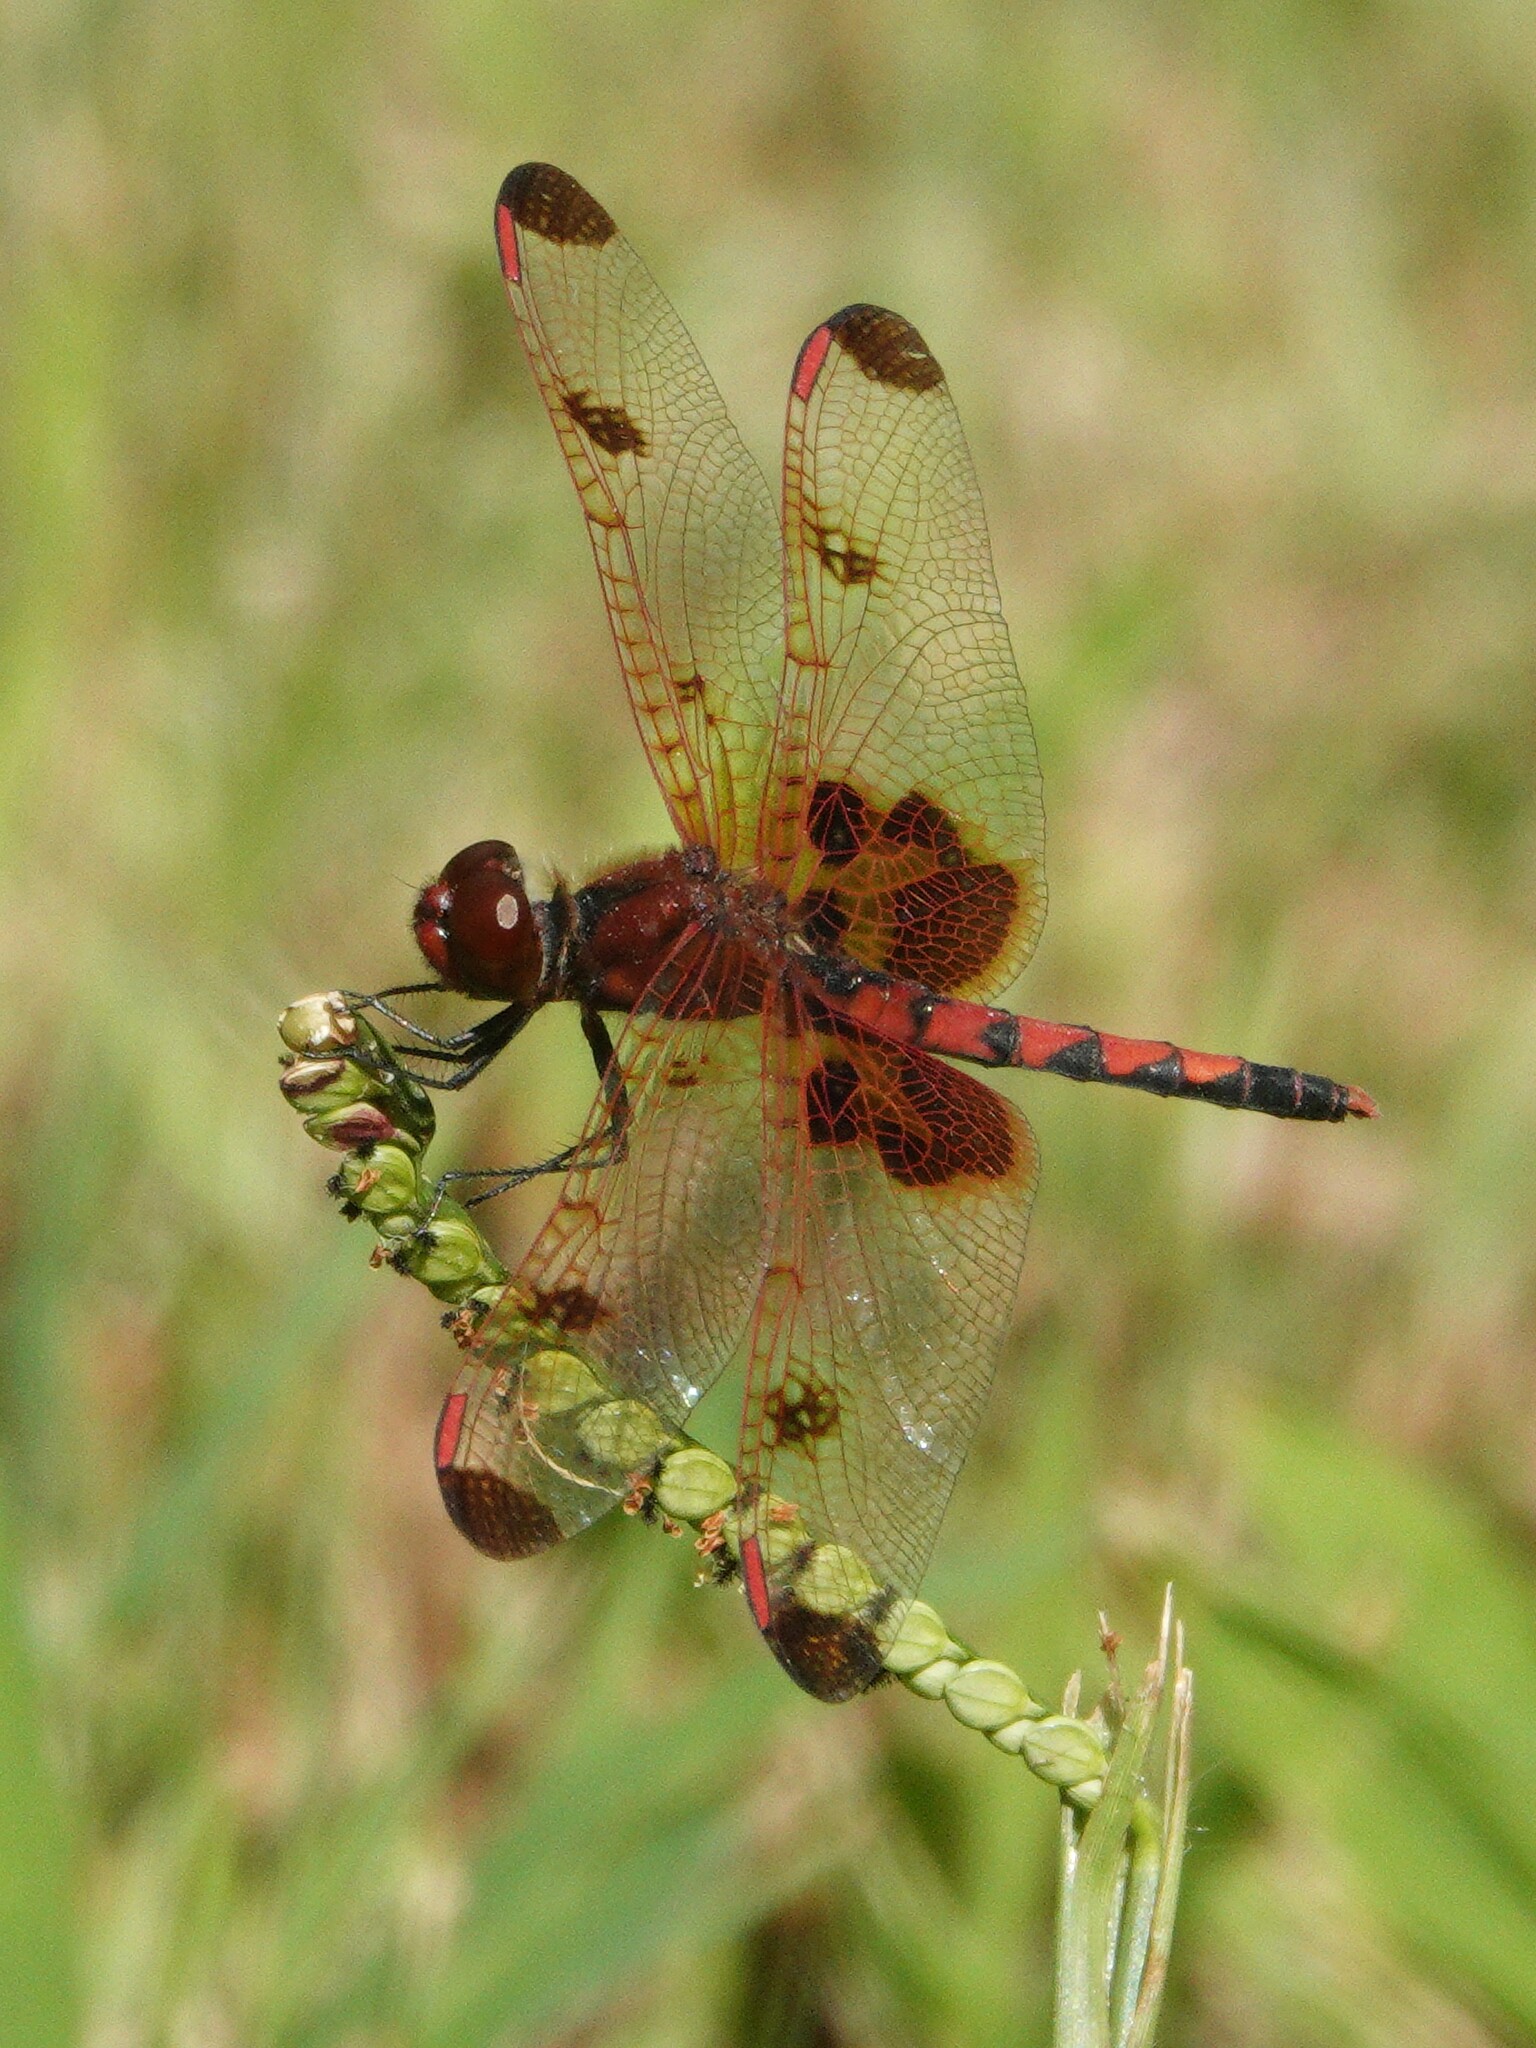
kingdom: Animalia
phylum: Arthropoda
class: Insecta
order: Odonata
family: Libellulidae
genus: Celithemis
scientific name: Celithemis elisa
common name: Calico pennant
